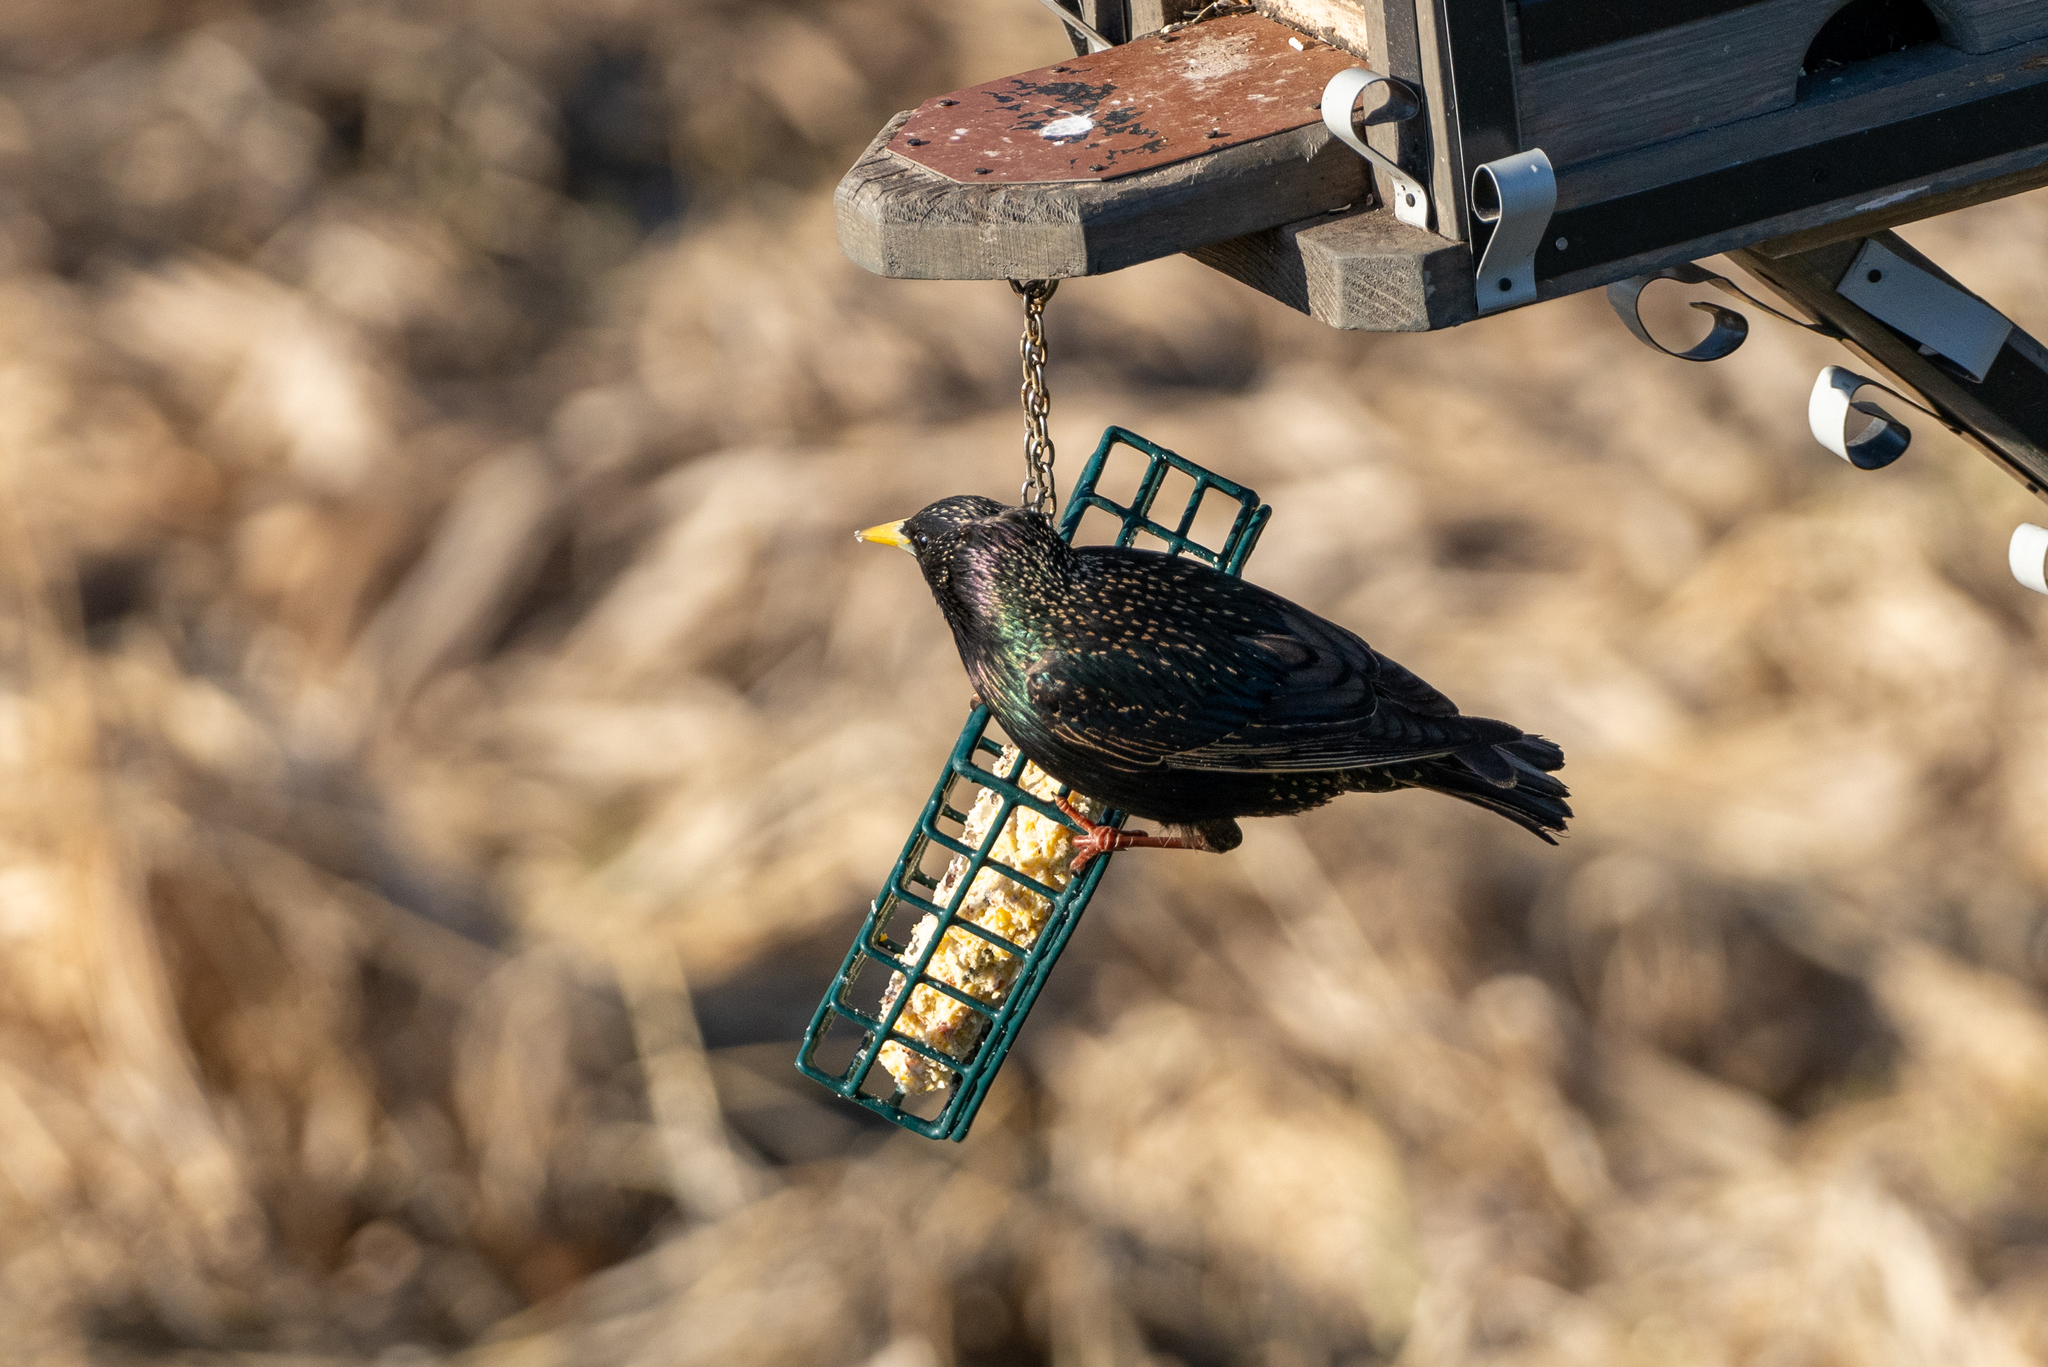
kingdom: Animalia
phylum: Chordata
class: Aves
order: Passeriformes
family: Sturnidae
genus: Sturnus
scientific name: Sturnus vulgaris
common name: Common starling
